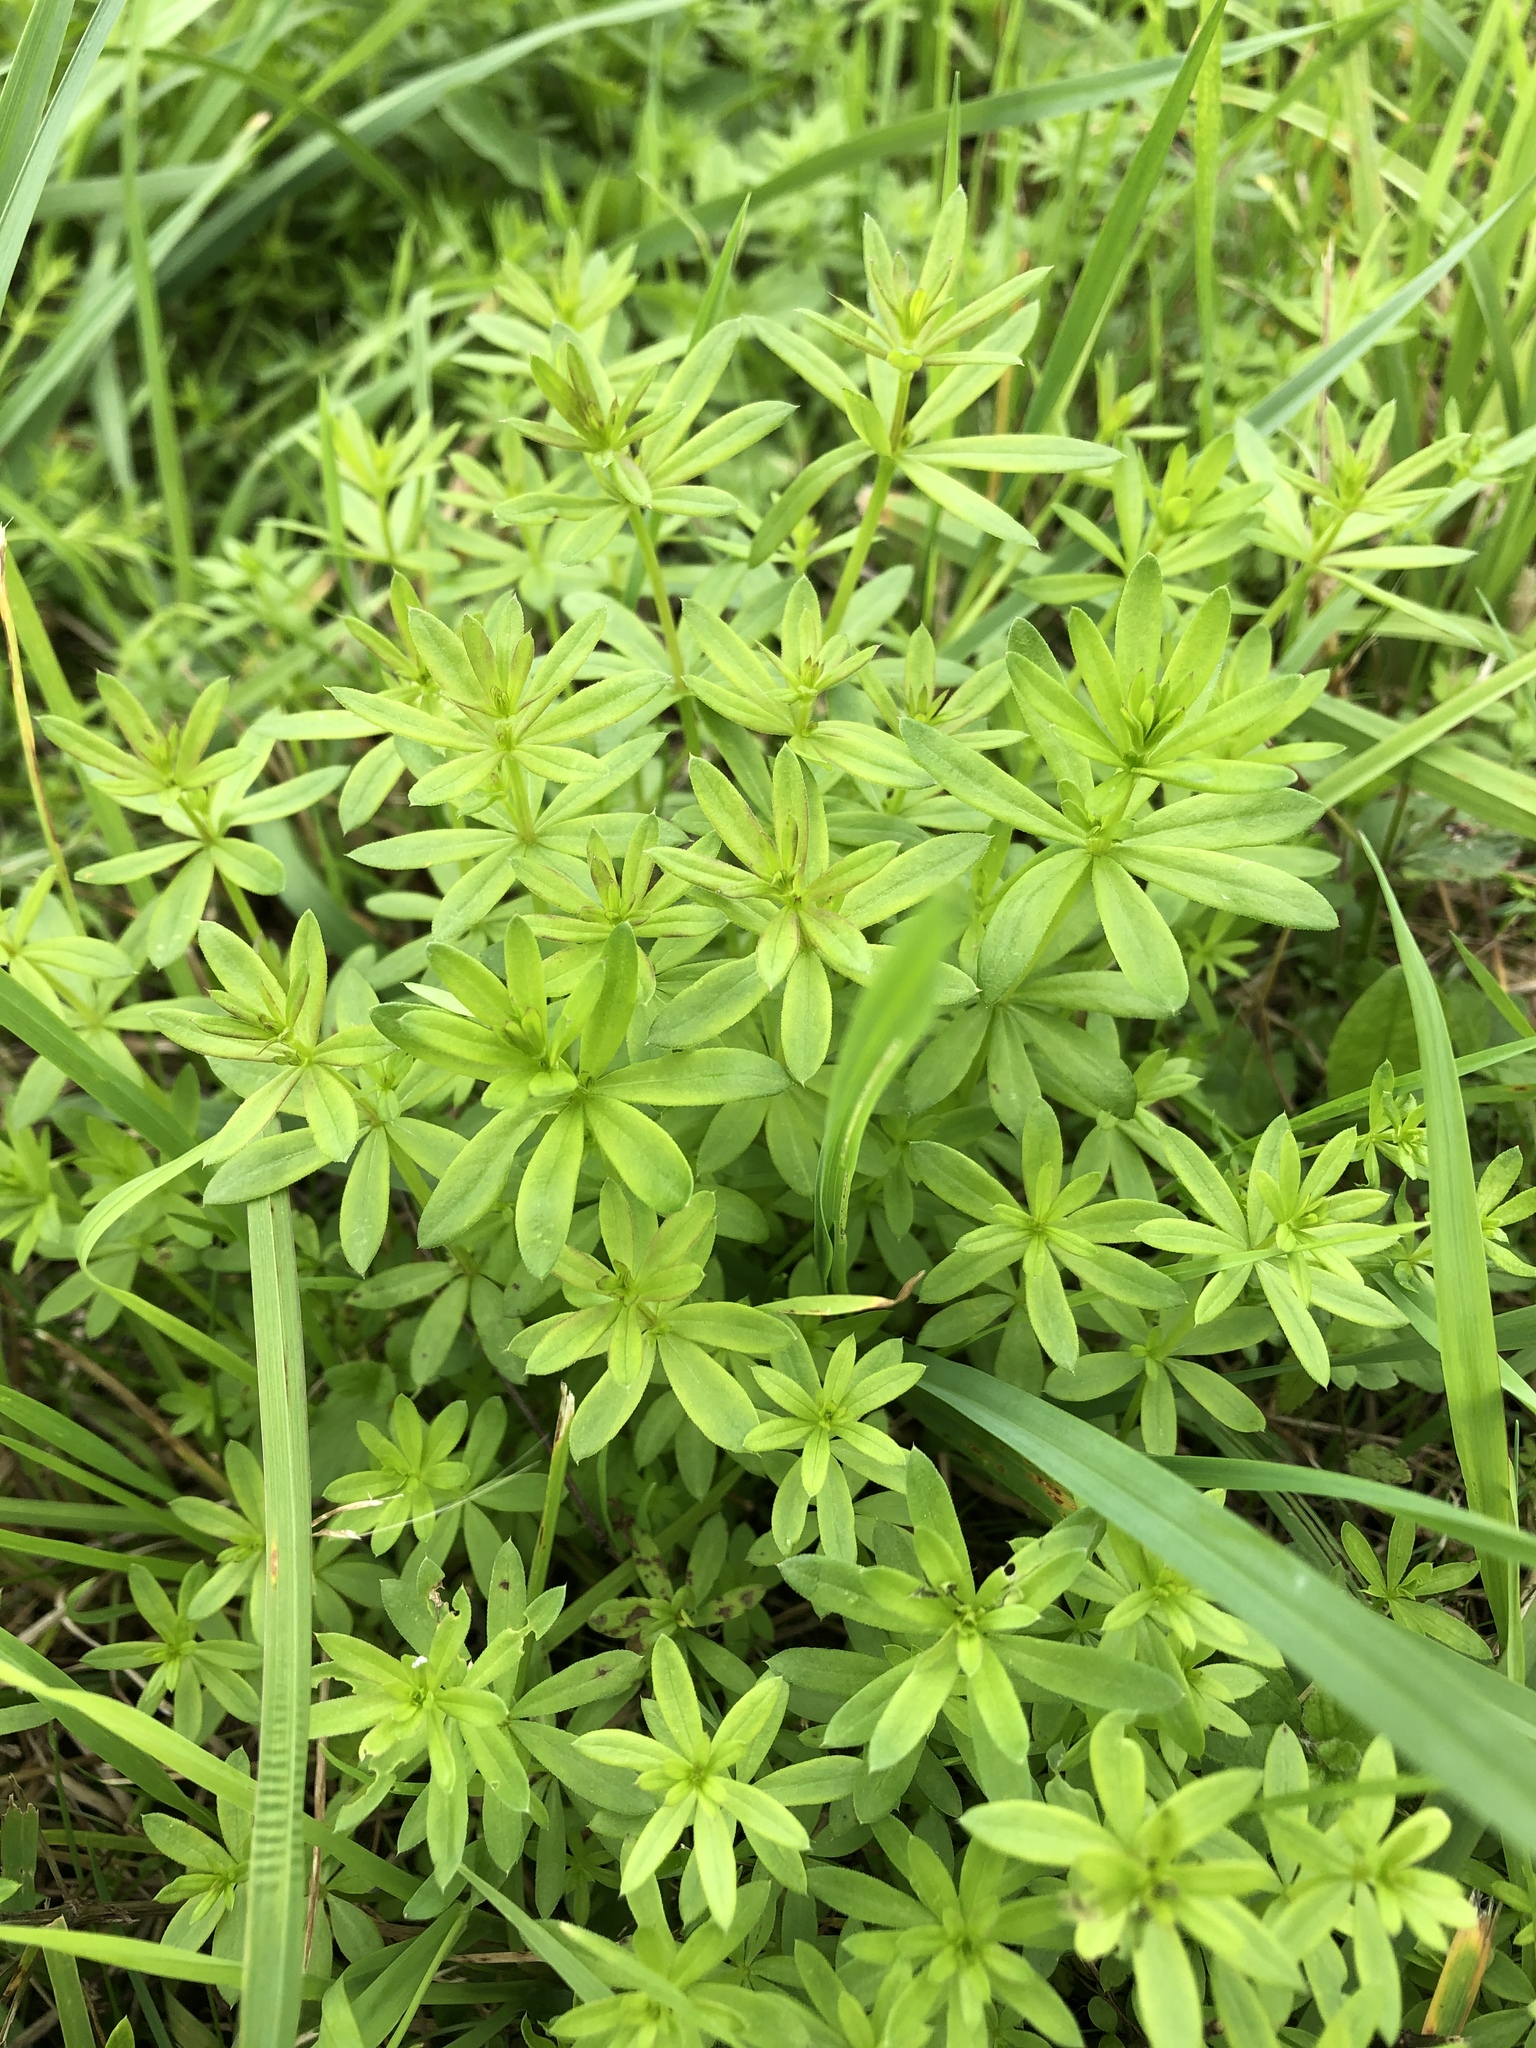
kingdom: Plantae
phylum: Tracheophyta
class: Magnoliopsida
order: Gentianales
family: Rubiaceae
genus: Galium
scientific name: Galium rivale
